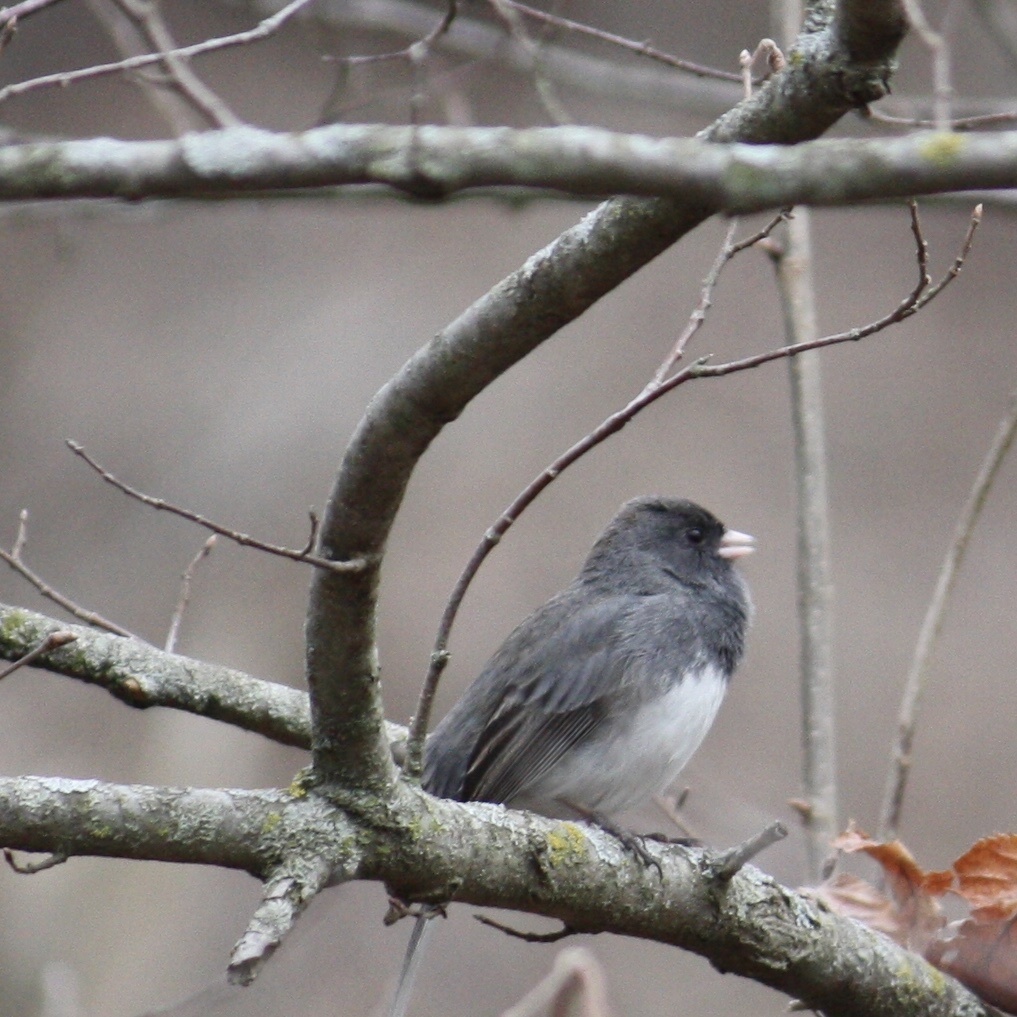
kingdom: Animalia
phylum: Chordata
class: Aves
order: Passeriformes
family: Passerellidae
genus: Junco
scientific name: Junco hyemalis
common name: Dark-eyed junco
